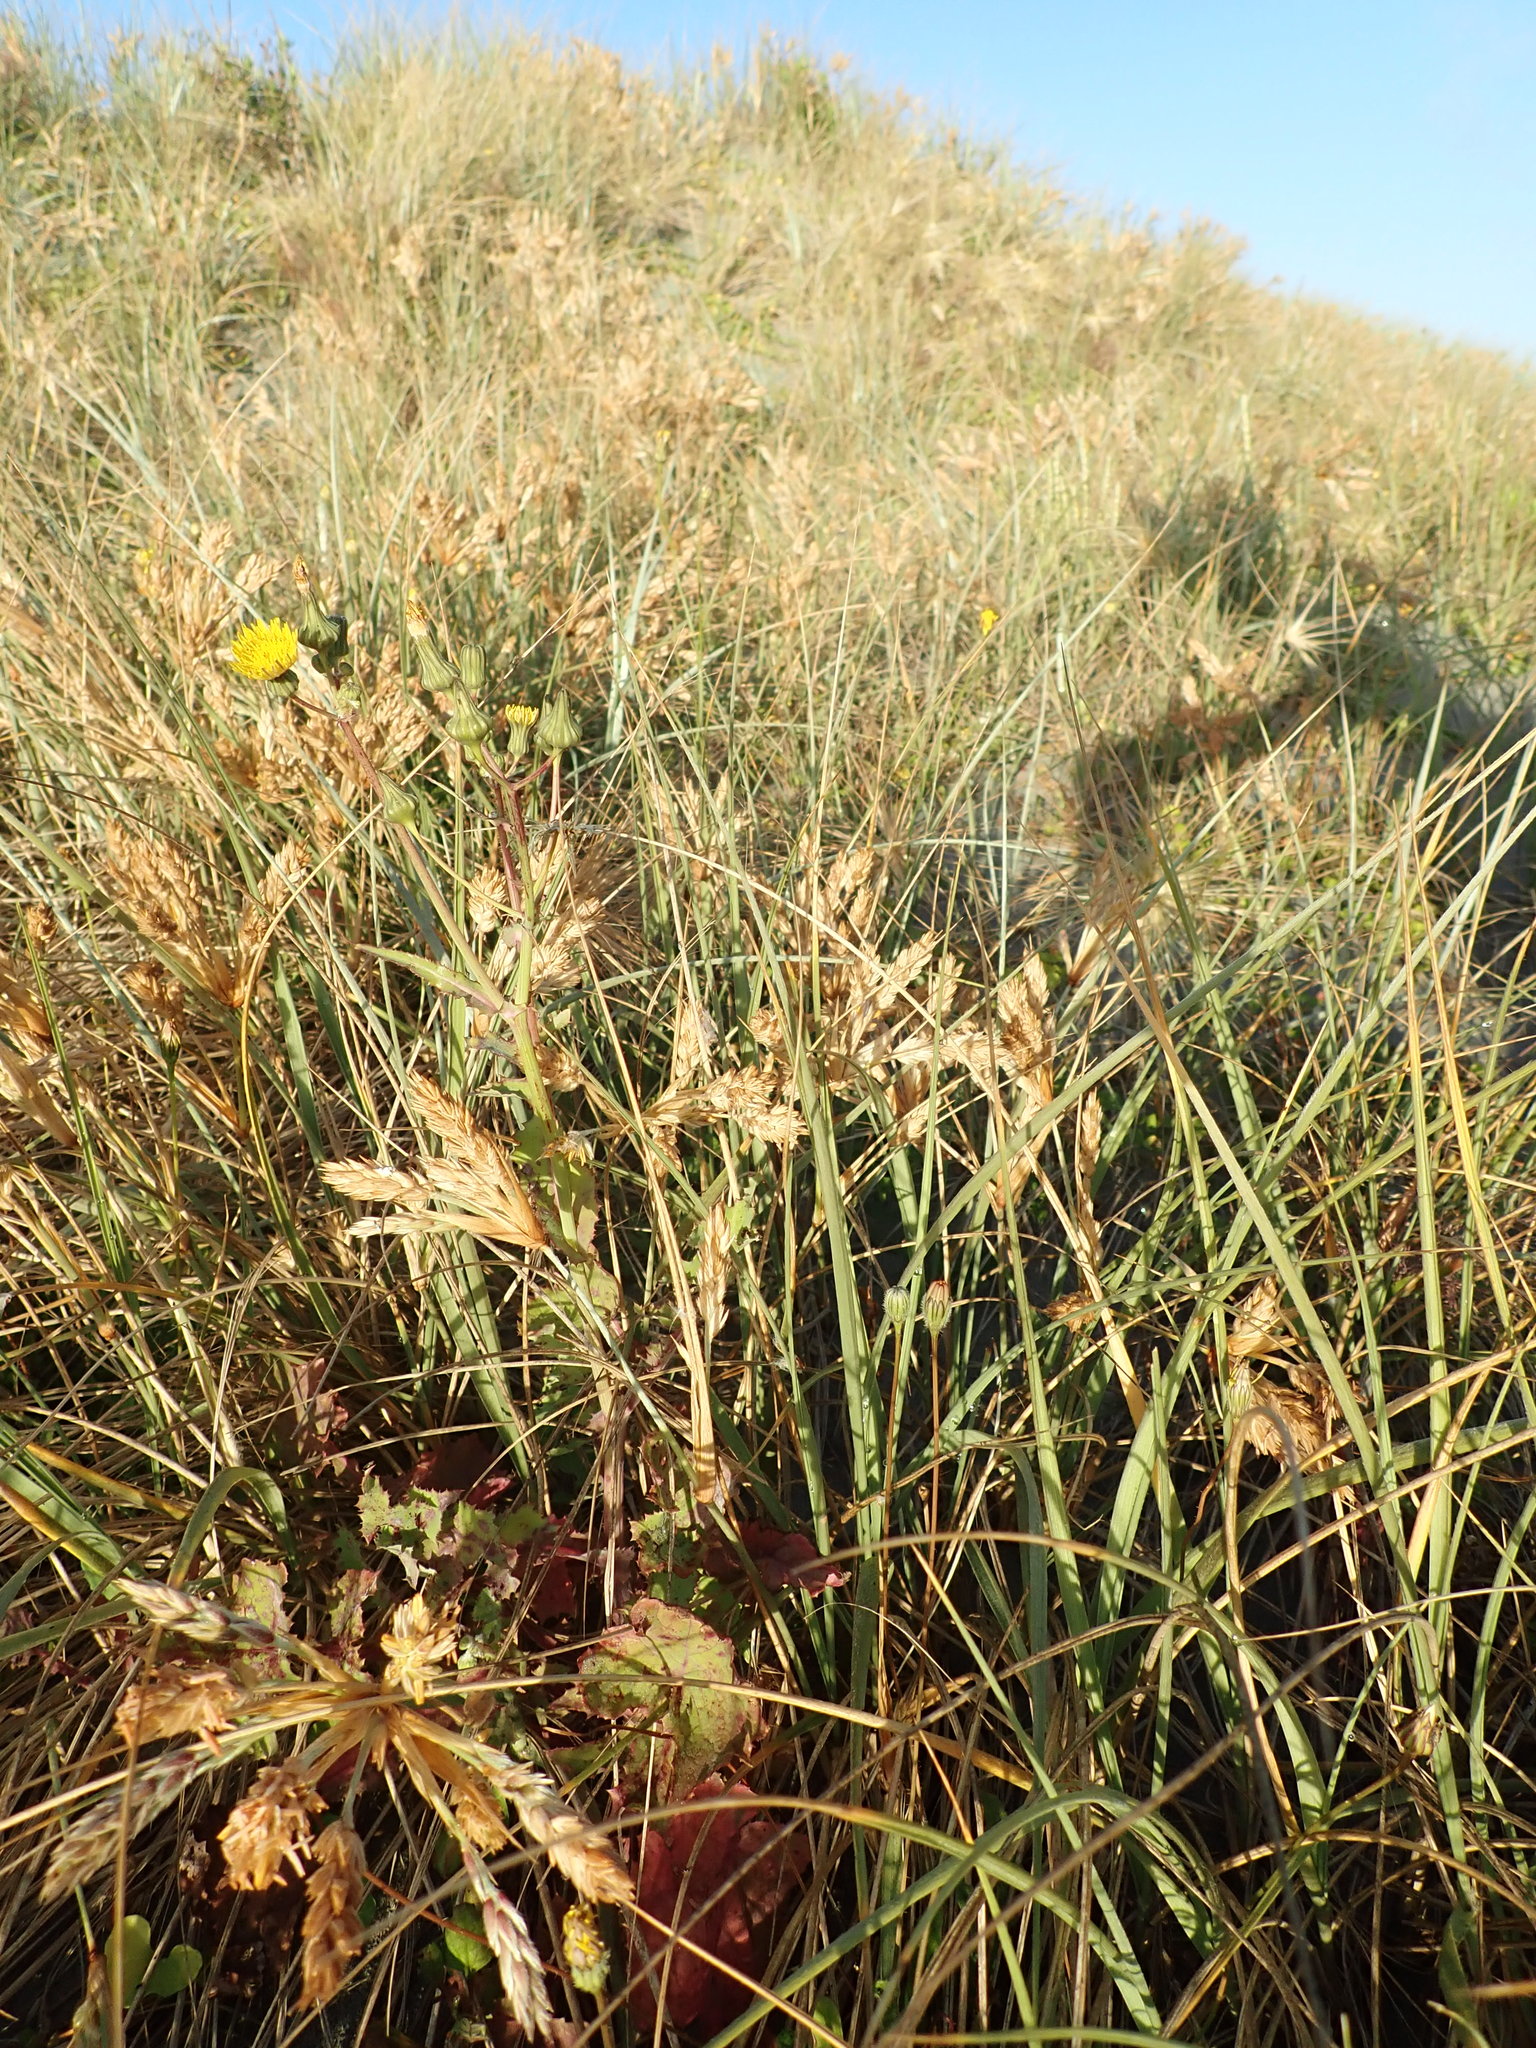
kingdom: Plantae
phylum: Tracheophyta
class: Magnoliopsida
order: Asterales
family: Asteraceae
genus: Sonchus
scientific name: Sonchus oleraceus
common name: Common sowthistle
